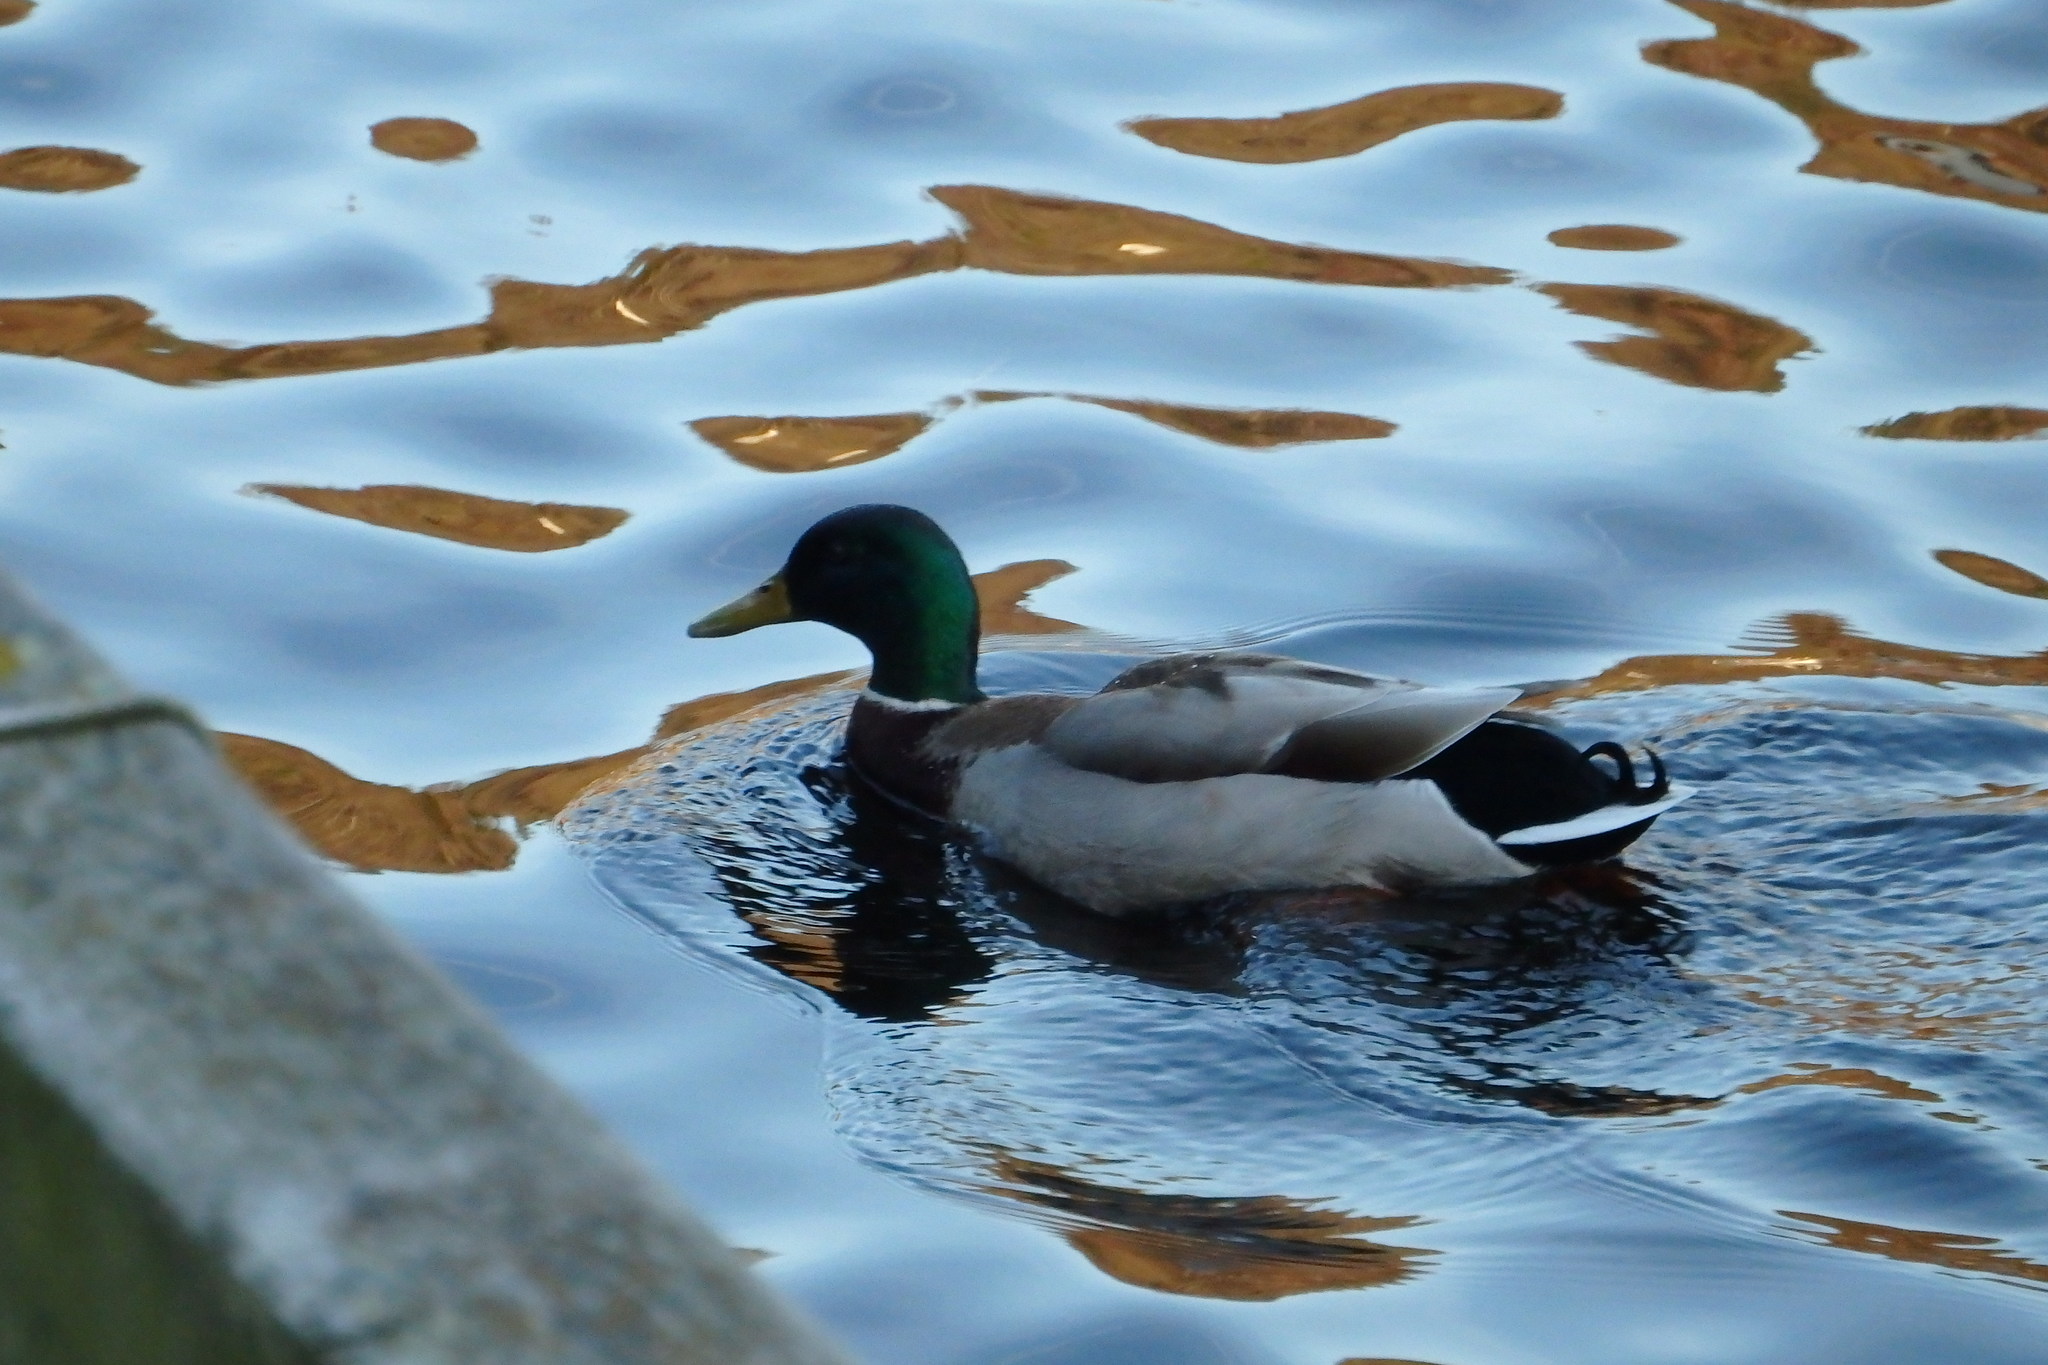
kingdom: Animalia
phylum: Chordata
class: Aves
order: Anseriformes
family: Anatidae
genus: Anas
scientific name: Anas platyrhynchos
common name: Mallard
